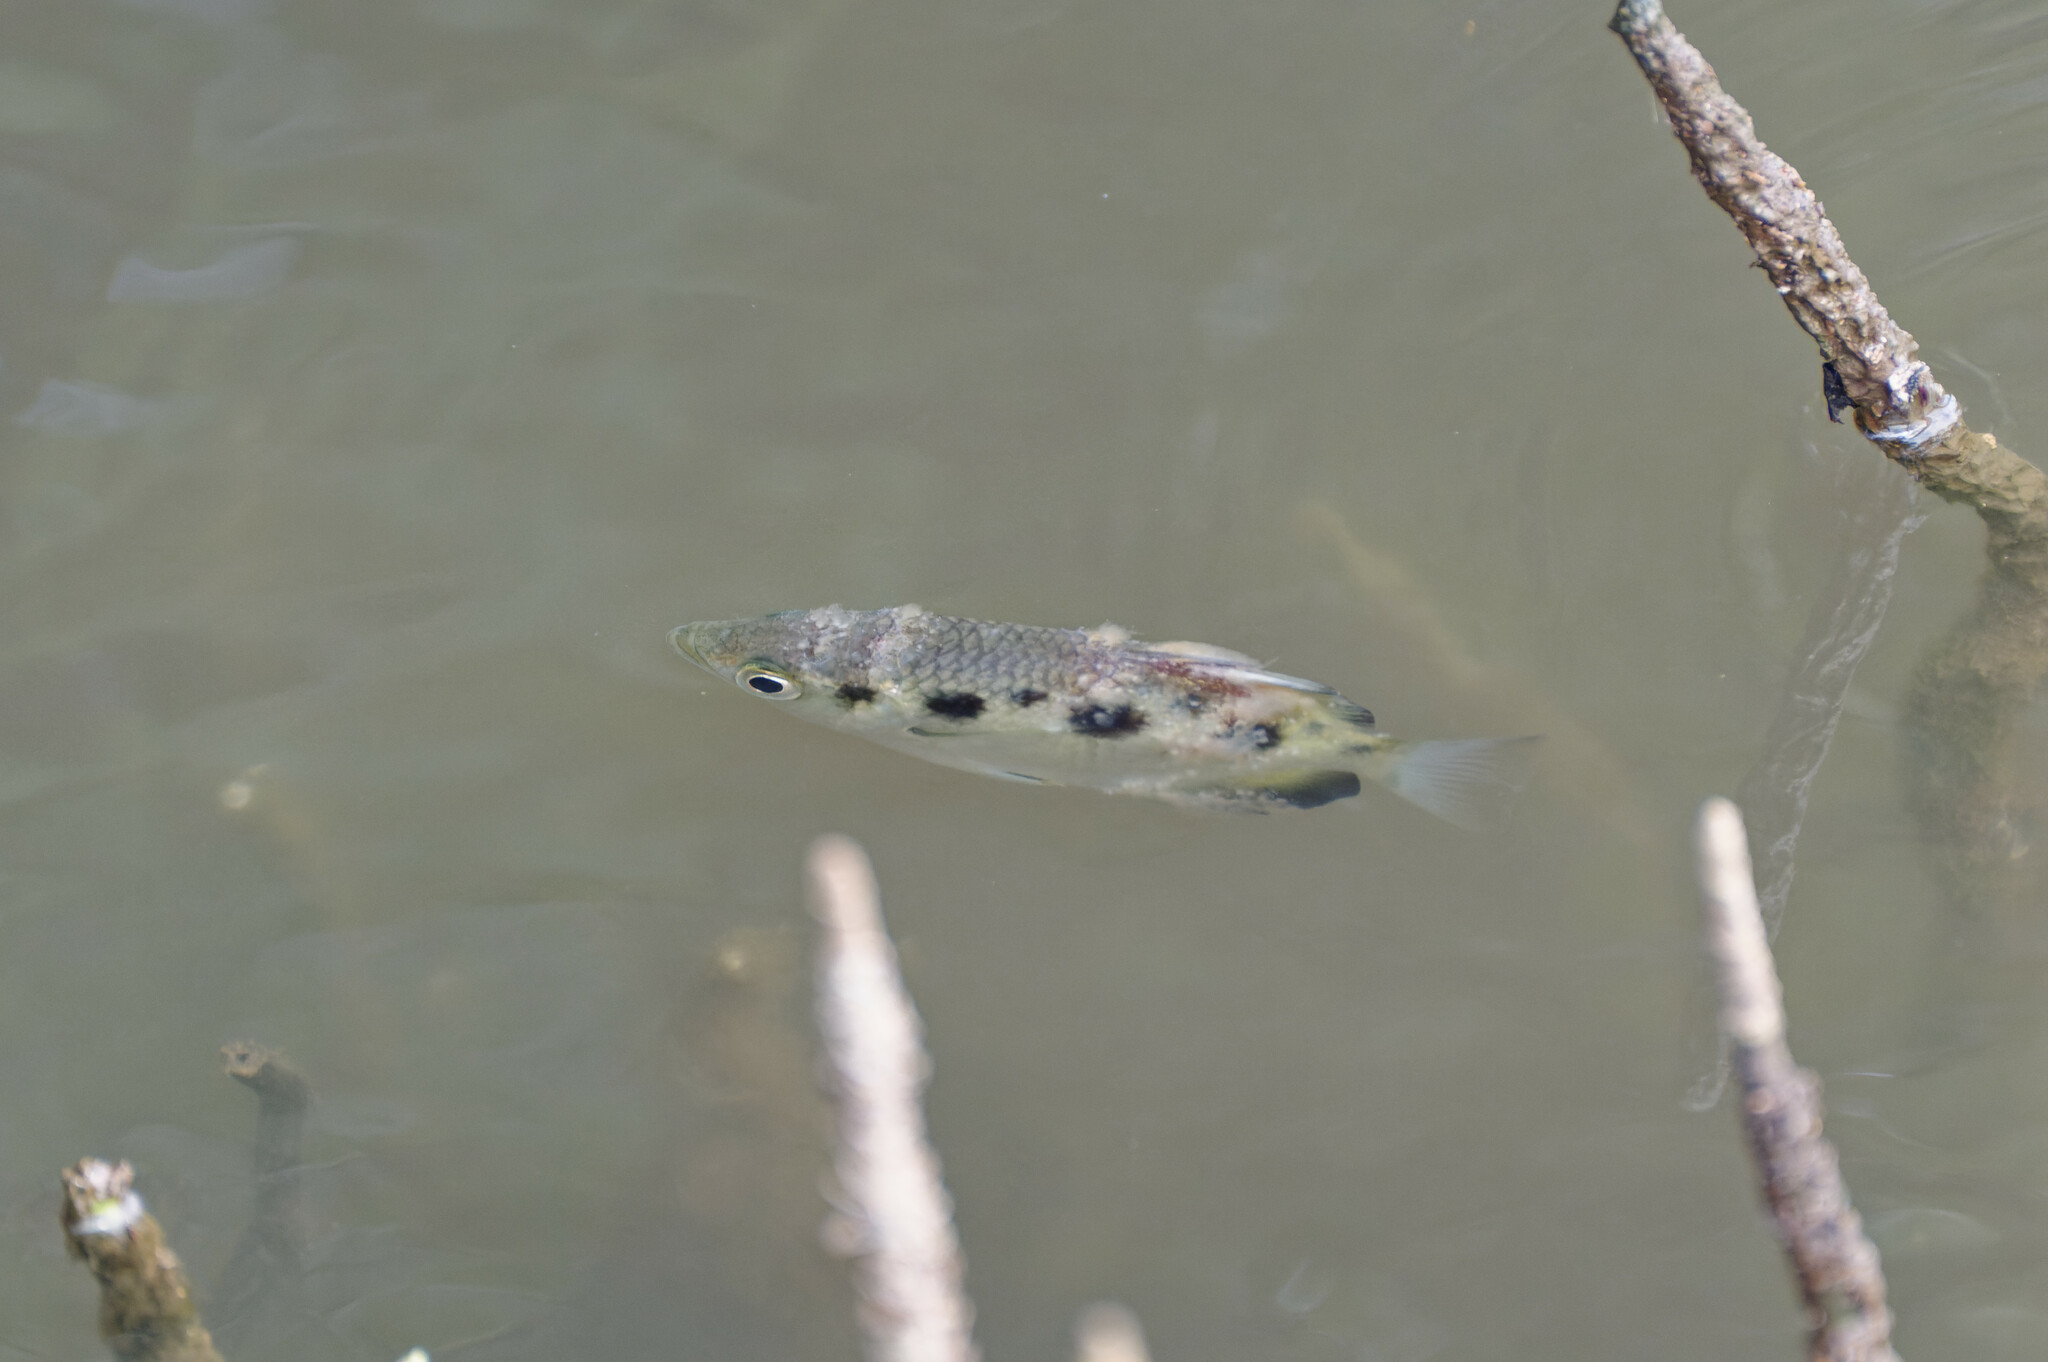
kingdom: Animalia
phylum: Chordata
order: Perciformes
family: Toxotidae
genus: Toxotes
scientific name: Toxotes chatareus
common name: Spotted archerfish
